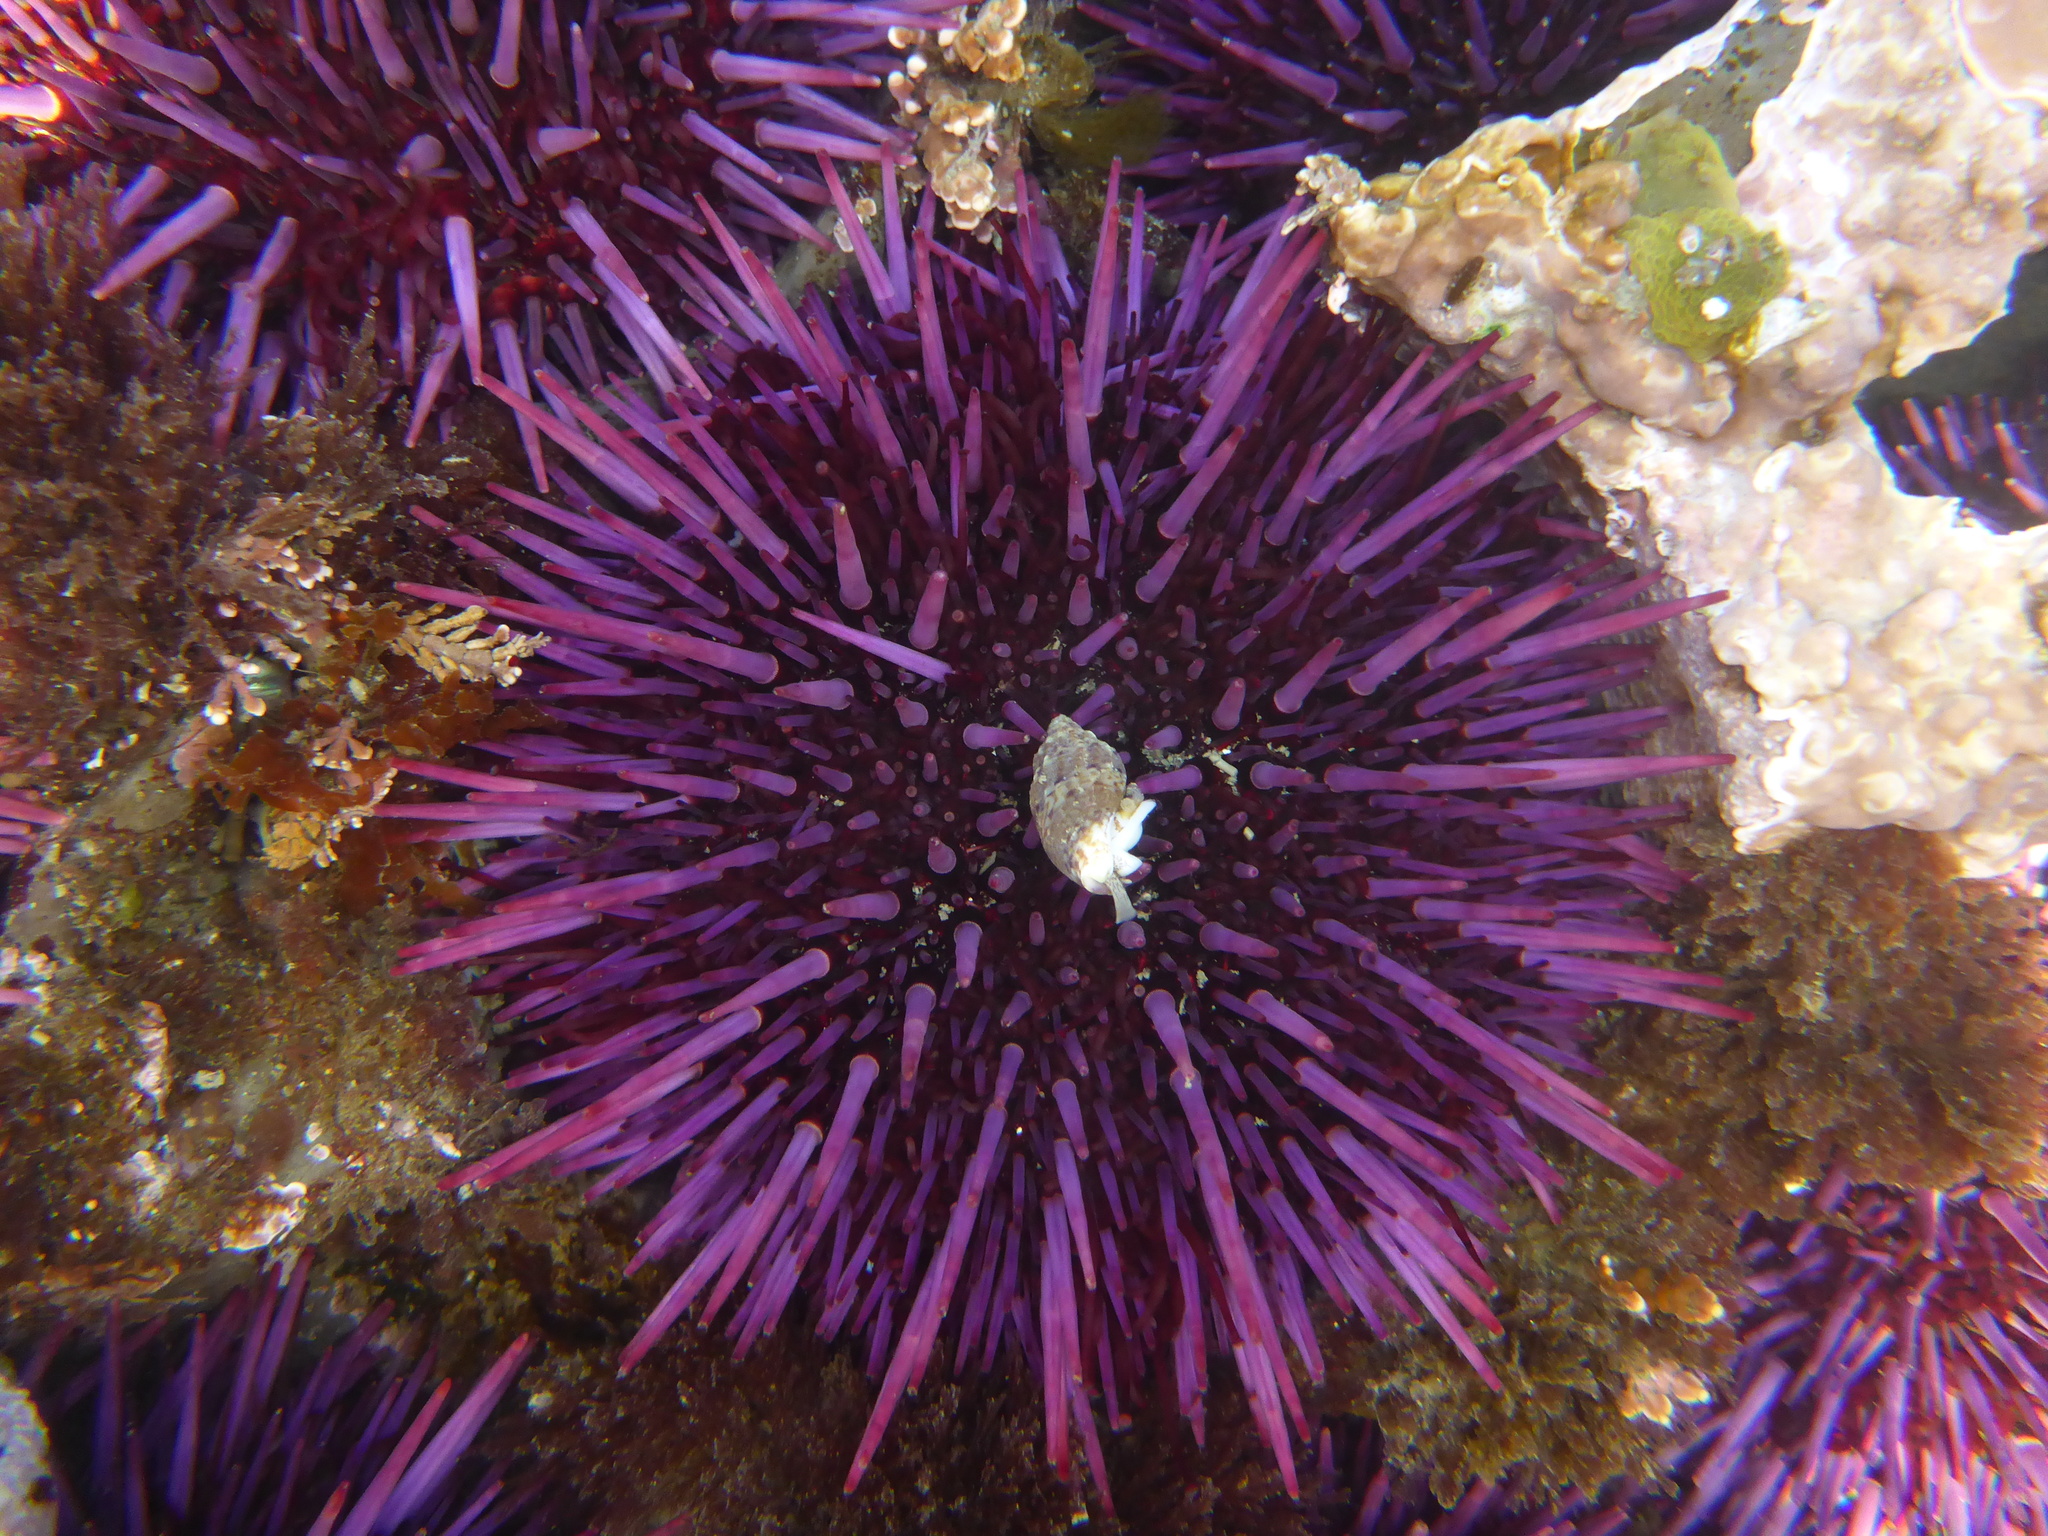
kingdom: Animalia
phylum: Echinodermata
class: Echinoidea
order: Camarodonta
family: Strongylocentrotidae
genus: Strongylocentrotus
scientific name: Strongylocentrotus purpuratus
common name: Purple sea urchin
